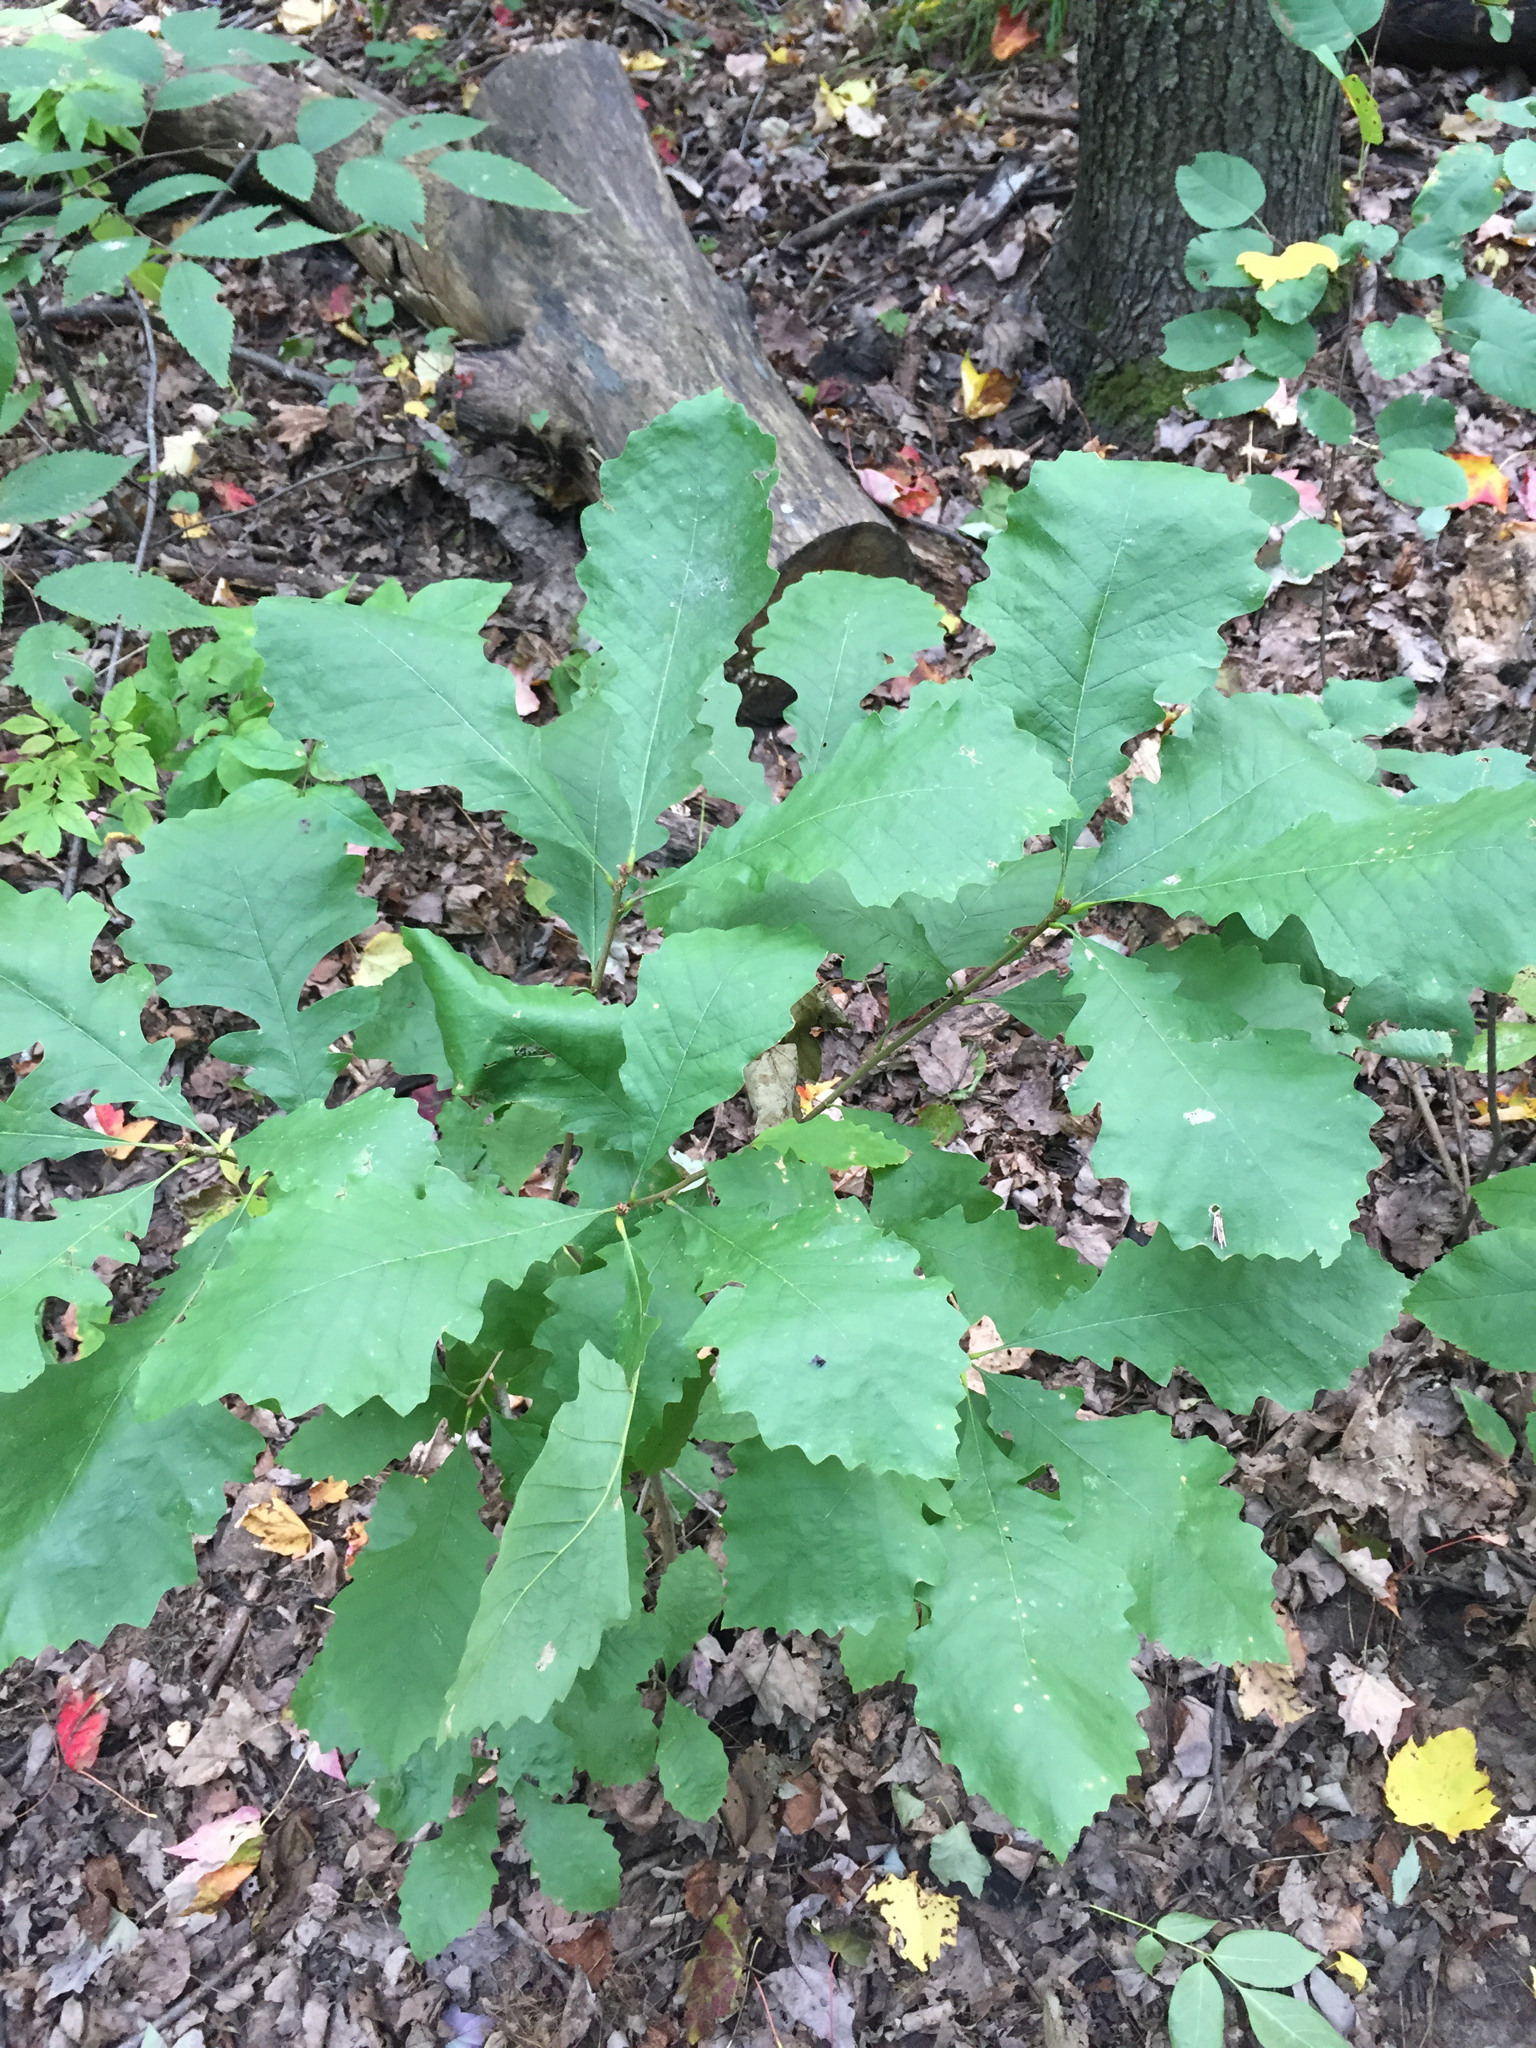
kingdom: Plantae
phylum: Tracheophyta
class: Magnoliopsida
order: Fagales
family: Fagaceae
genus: Quercus
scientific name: Quercus macrocarpa
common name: Bur oak
